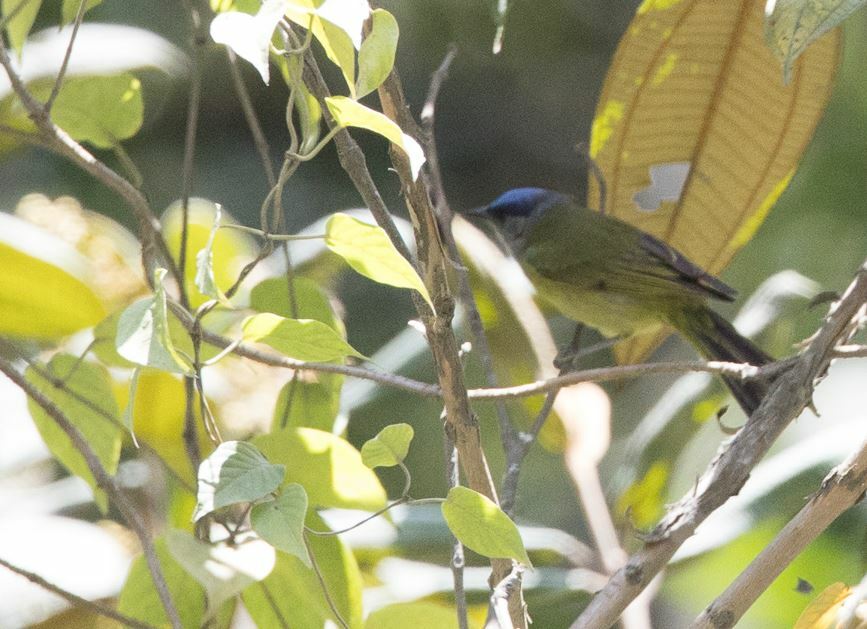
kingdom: Animalia
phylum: Chordata
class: Aves
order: Passeriformes
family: Thraupidae
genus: Conirostrum
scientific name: Conirostrum albifrons
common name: Capped conebill
